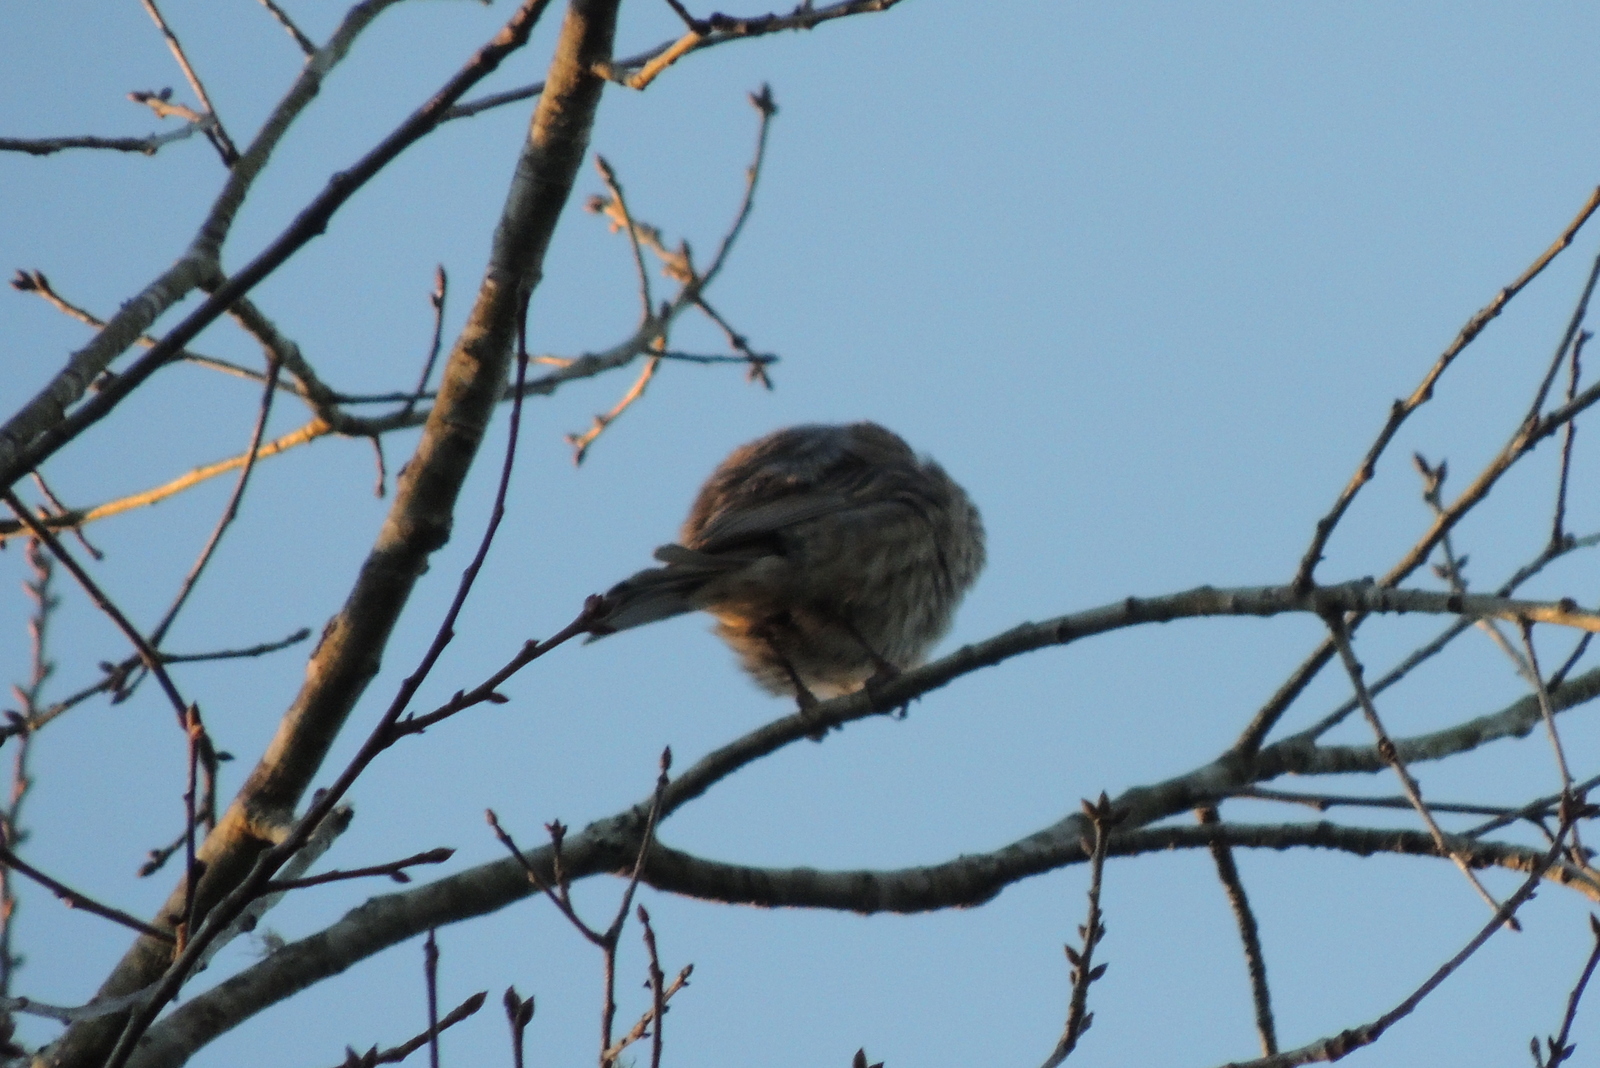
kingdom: Animalia
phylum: Chordata
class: Aves
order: Passeriformes
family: Fringillidae
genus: Haemorhous
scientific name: Haemorhous mexicanus
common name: House finch
